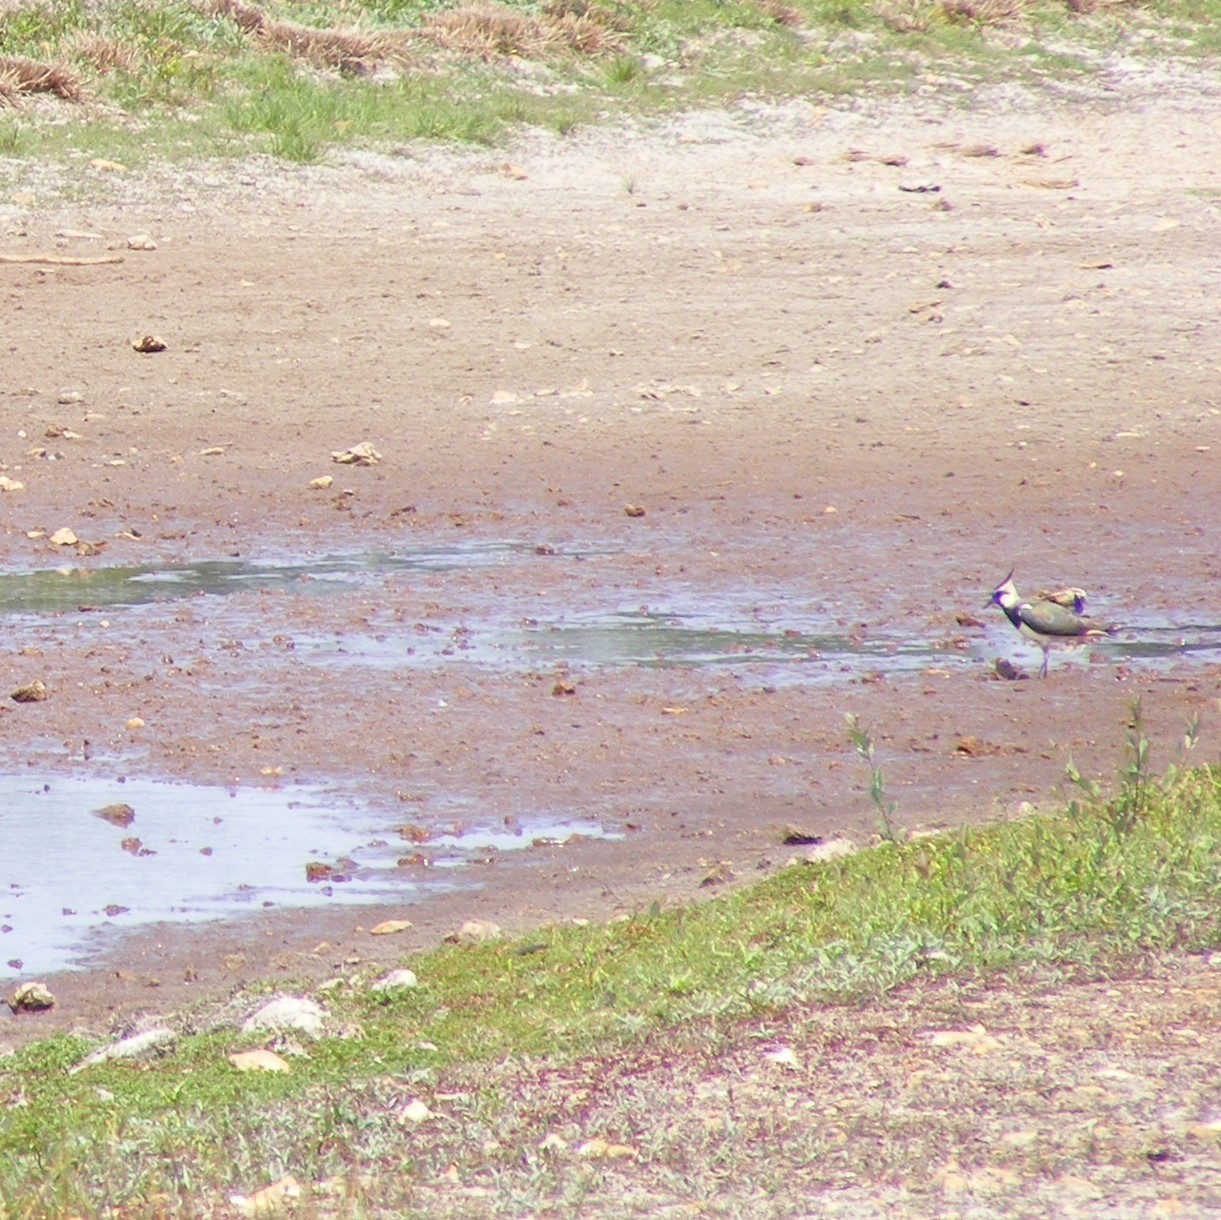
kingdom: Animalia
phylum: Chordata
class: Aves
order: Charadriiformes
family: Charadriidae
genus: Vanellus
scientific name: Vanellus vanellus
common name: Northern lapwing
